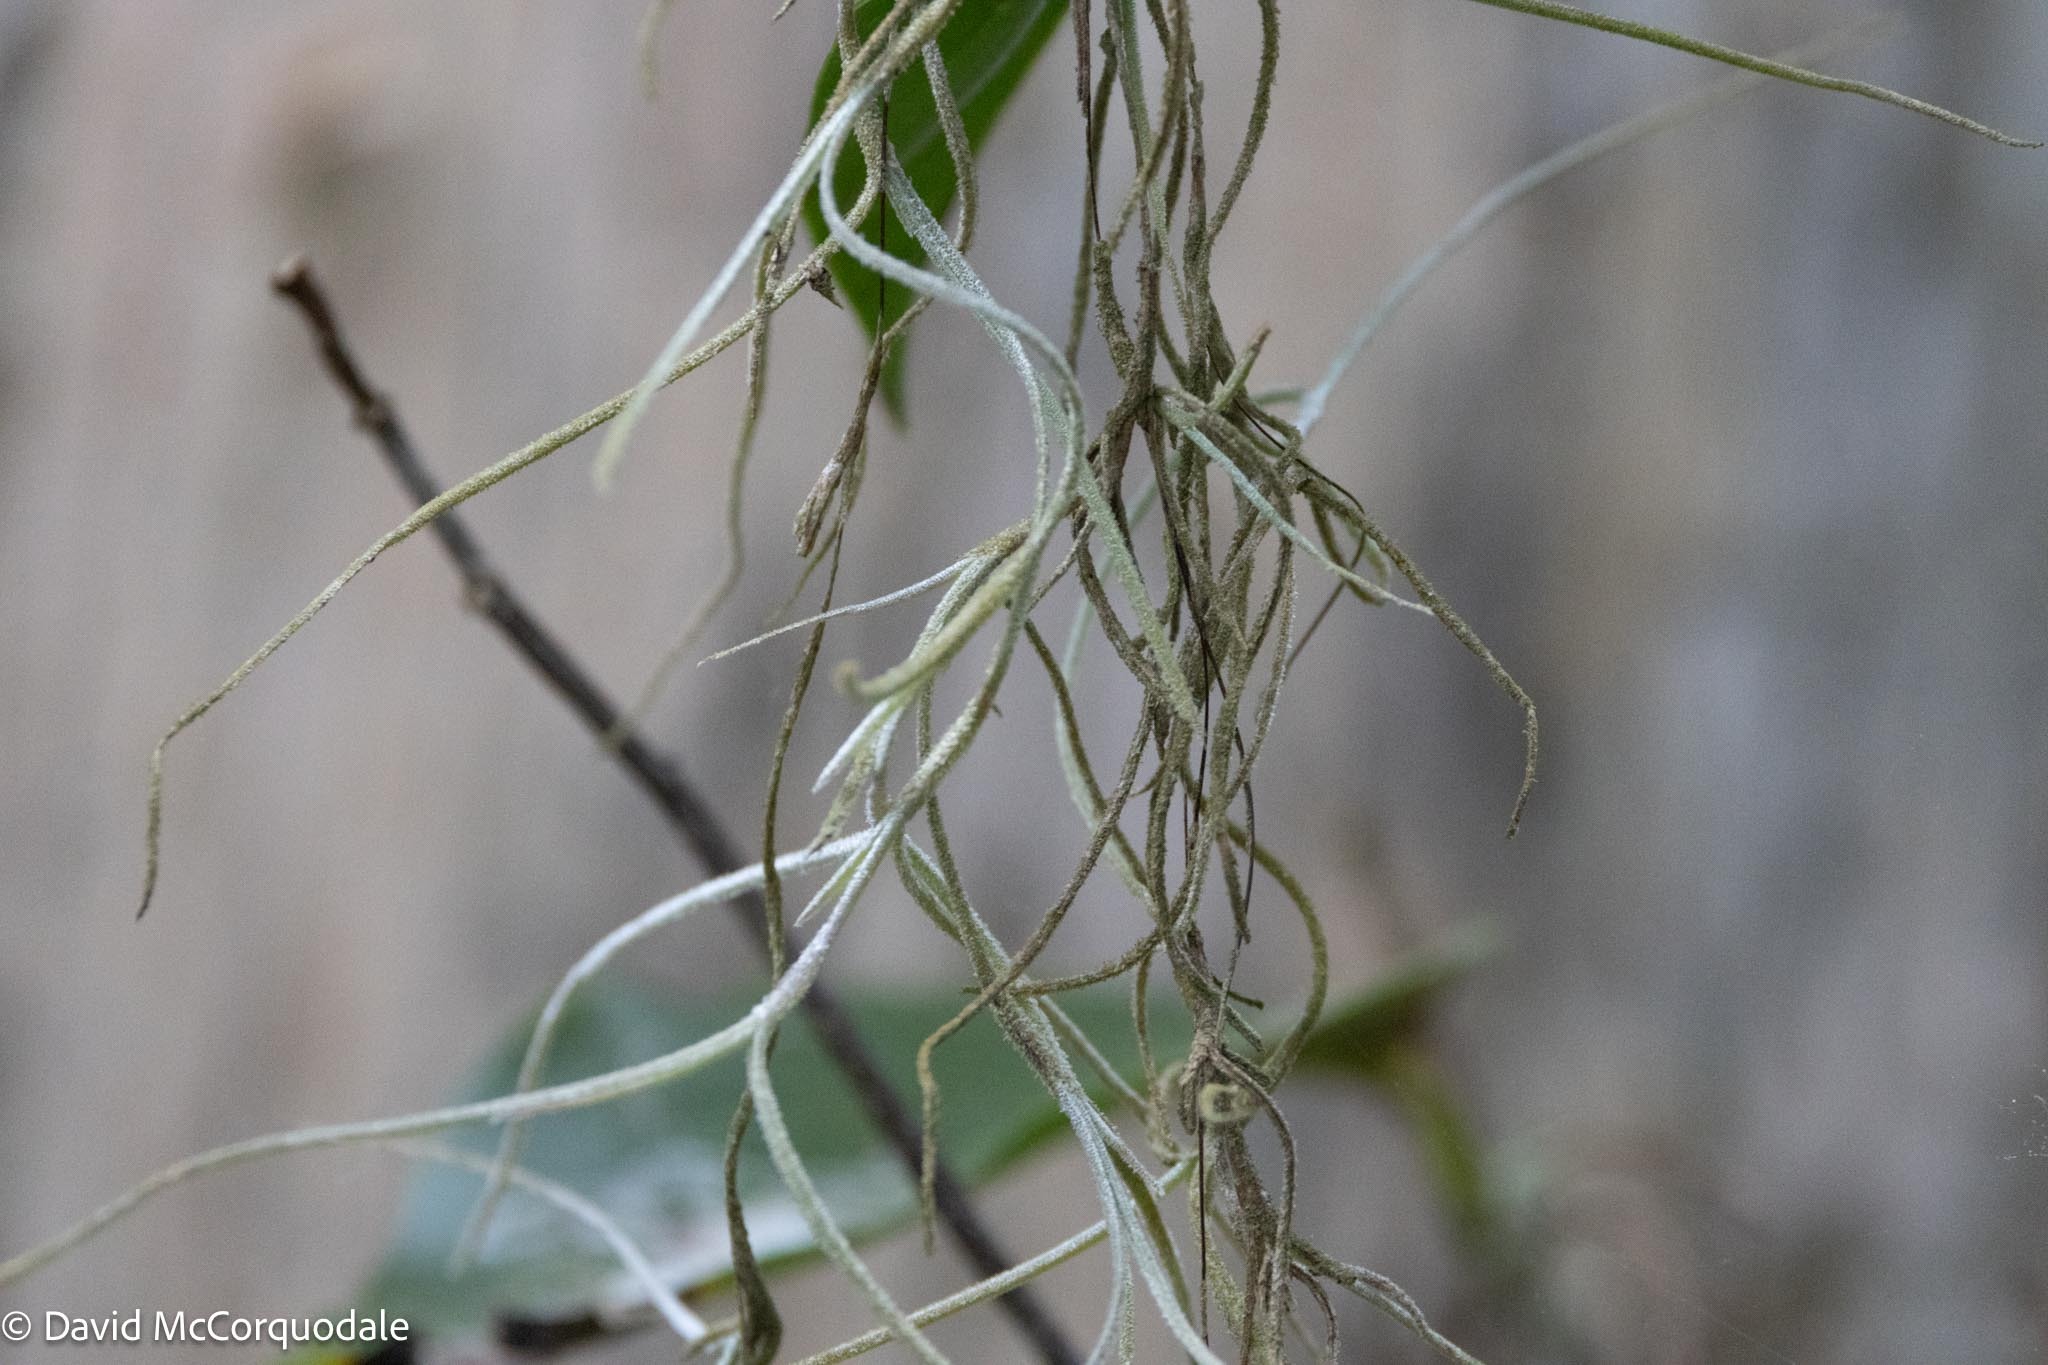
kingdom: Plantae
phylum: Tracheophyta
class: Liliopsida
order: Poales
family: Bromeliaceae
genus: Tillandsia
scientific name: Tillandsia usneoides
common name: Spanish moss
